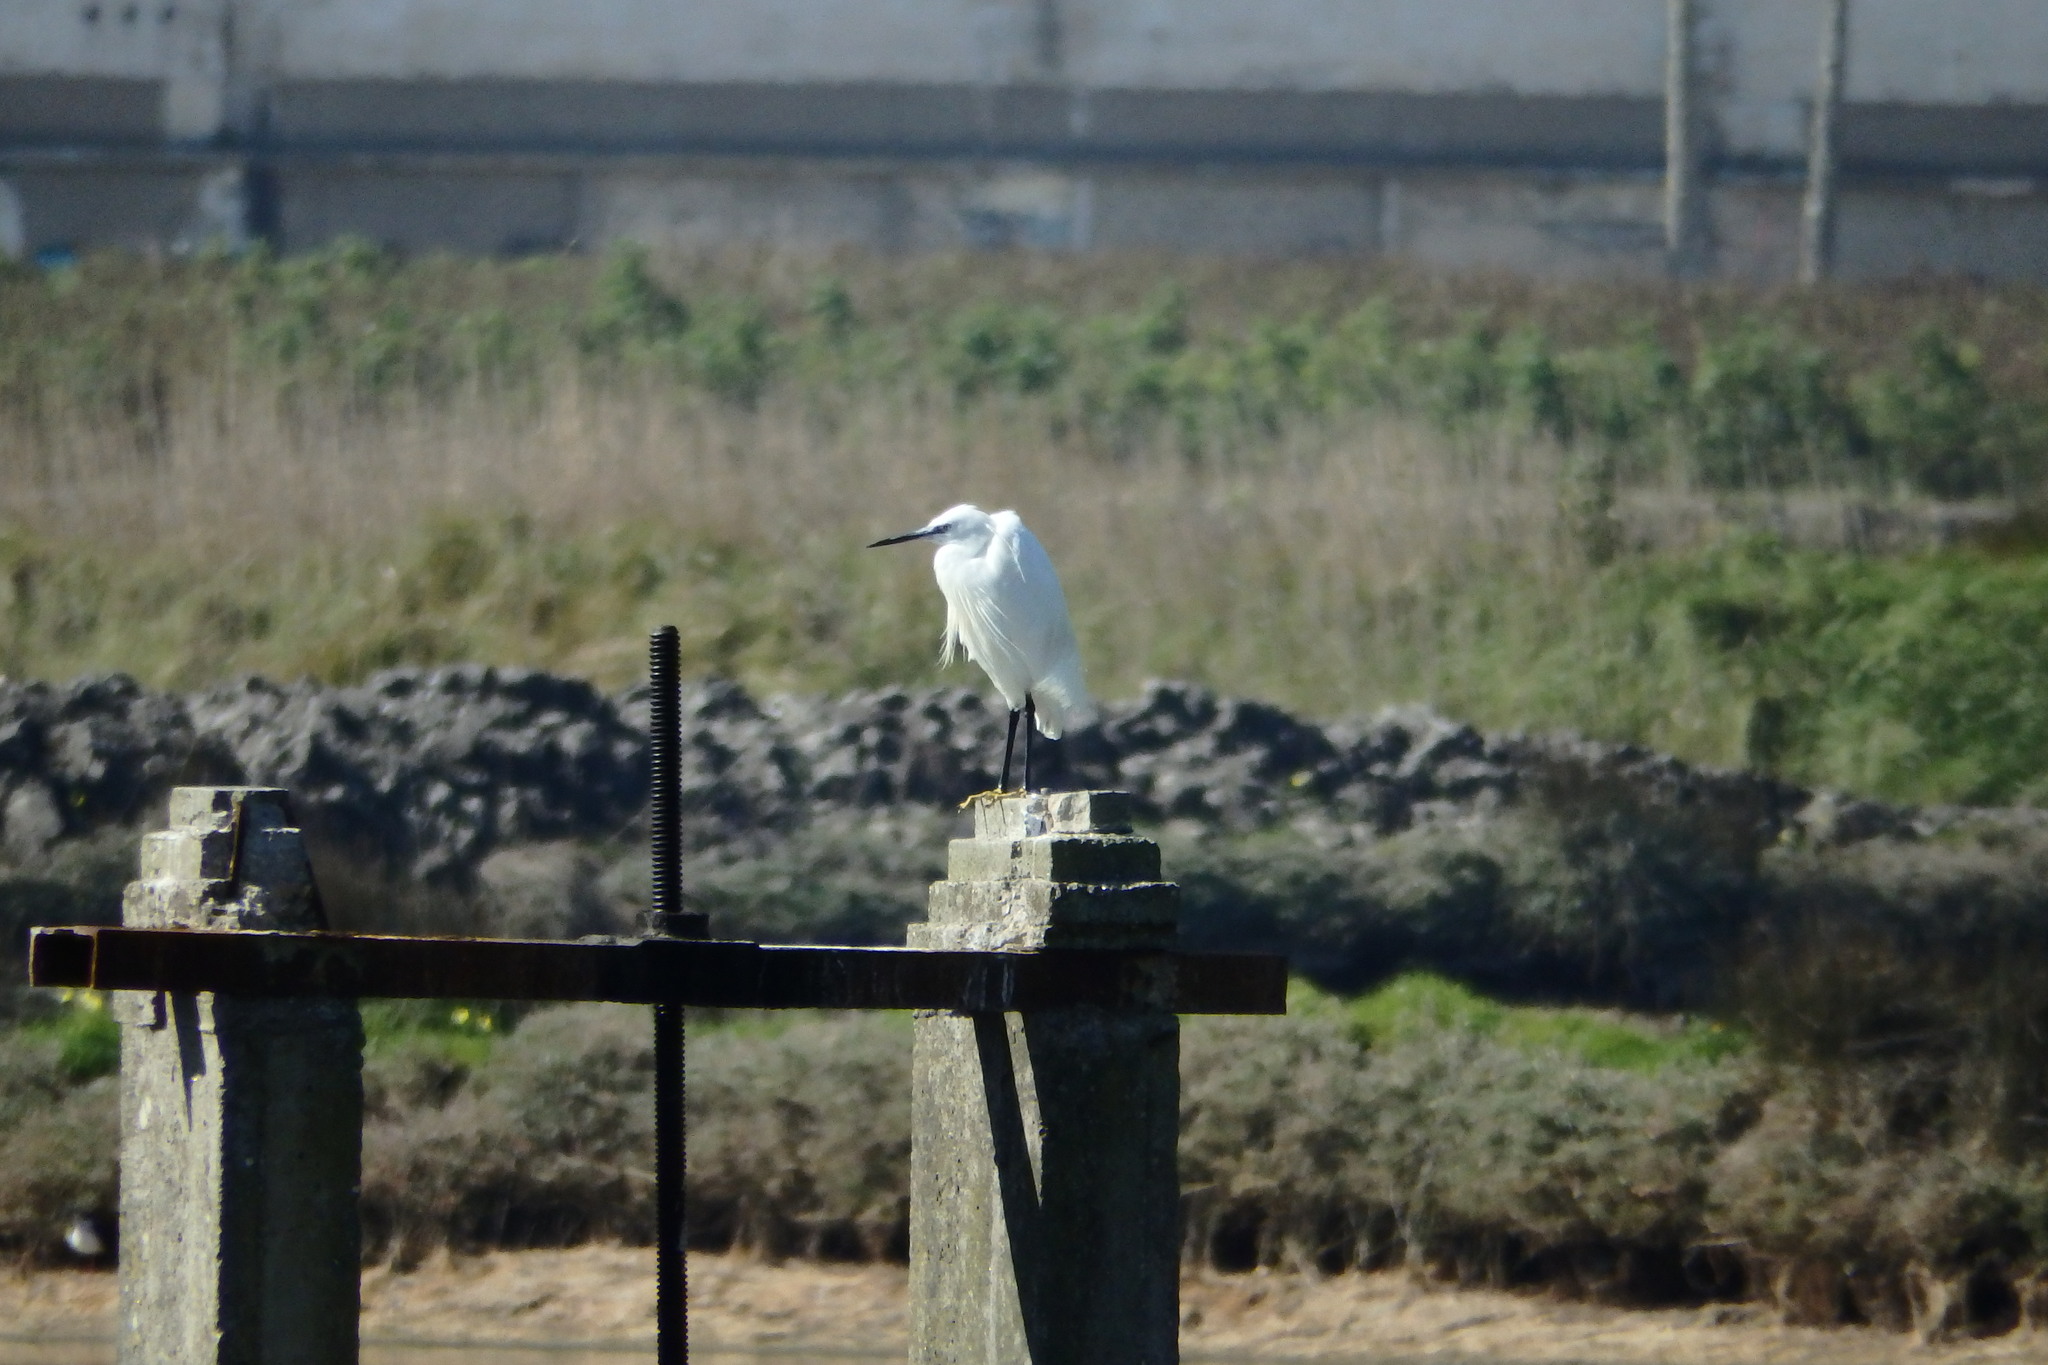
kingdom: Animalia
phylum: Chordata
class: Aves
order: Pelecaniformes
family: Ardeidae
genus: Egretta
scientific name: Egretta garzetta
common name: Little egret
